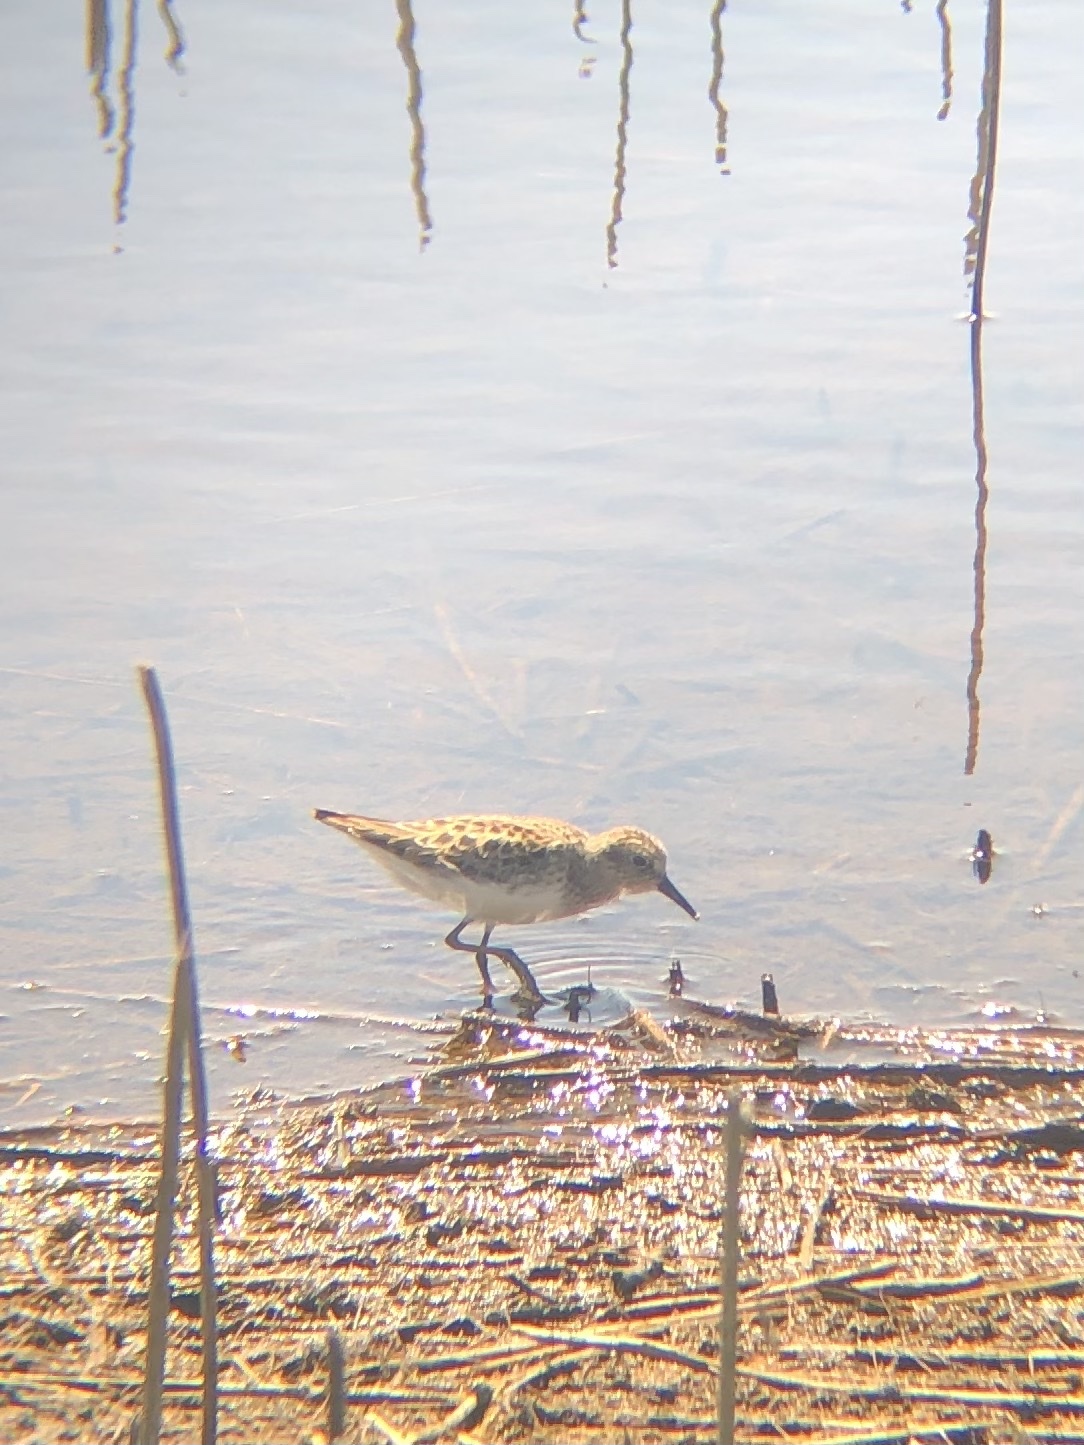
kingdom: Animalia
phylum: Chordata
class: Aves
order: Charadriiformes
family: Scolopacidae
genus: Calidris
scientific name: Calidris minutilla
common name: Least sandpiper
